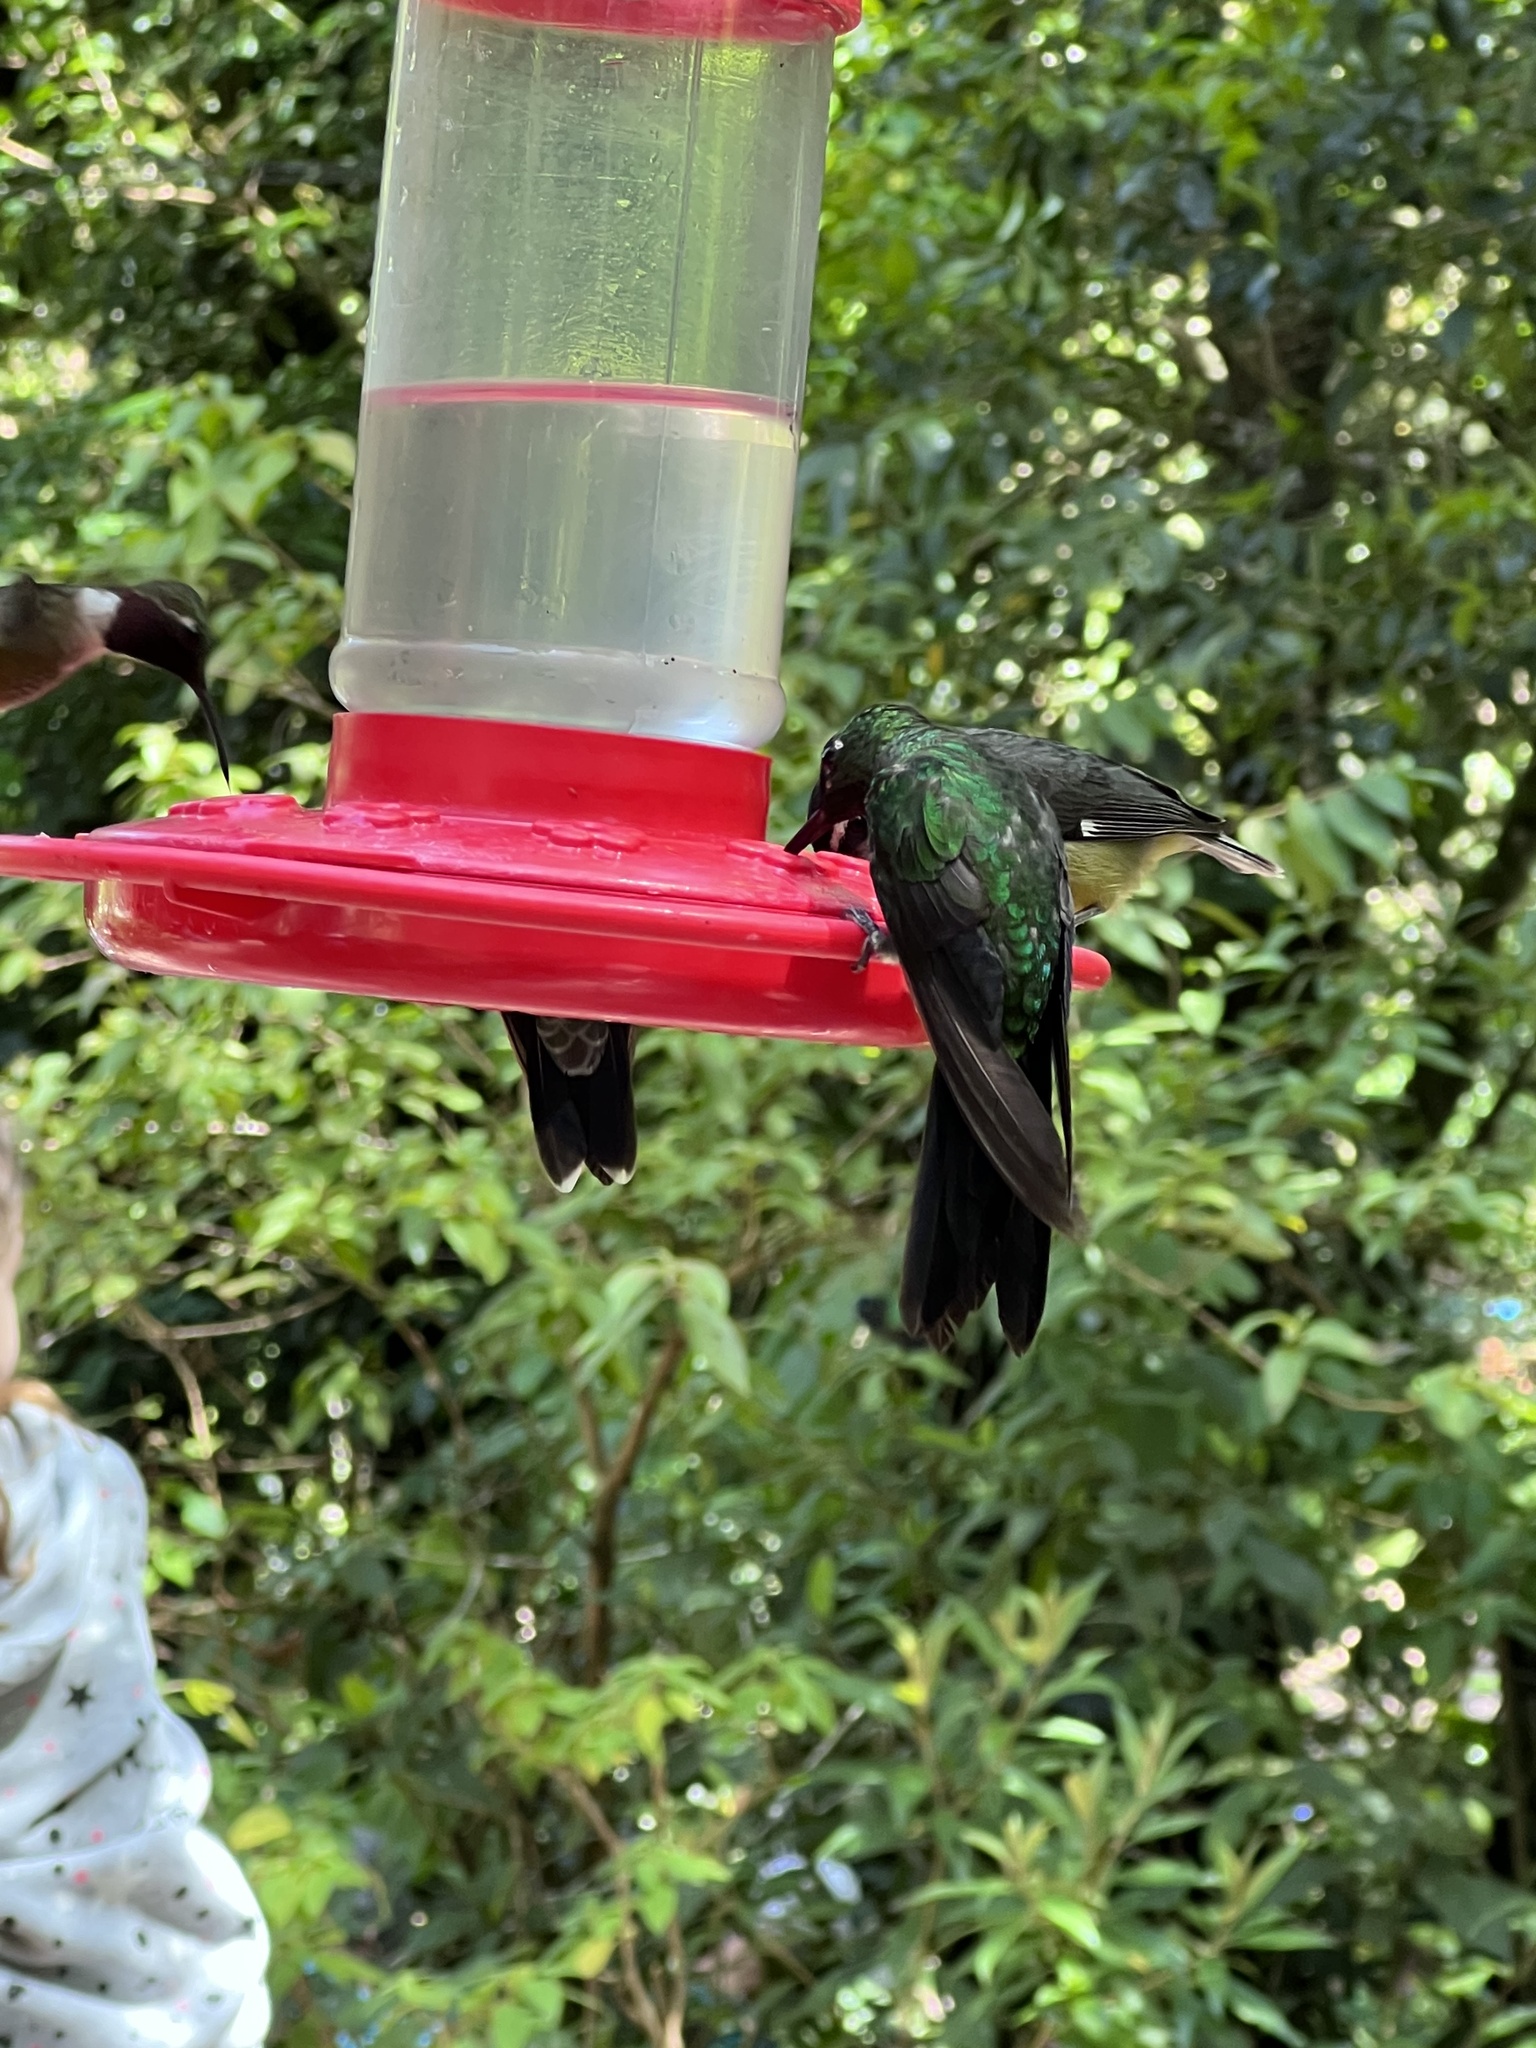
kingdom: Animalia
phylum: Chordata
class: Aves
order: Apodiformes
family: Trochilidae
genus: Heliodoxa
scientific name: Heliodoxa jacula
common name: Green-crowned brilliant
